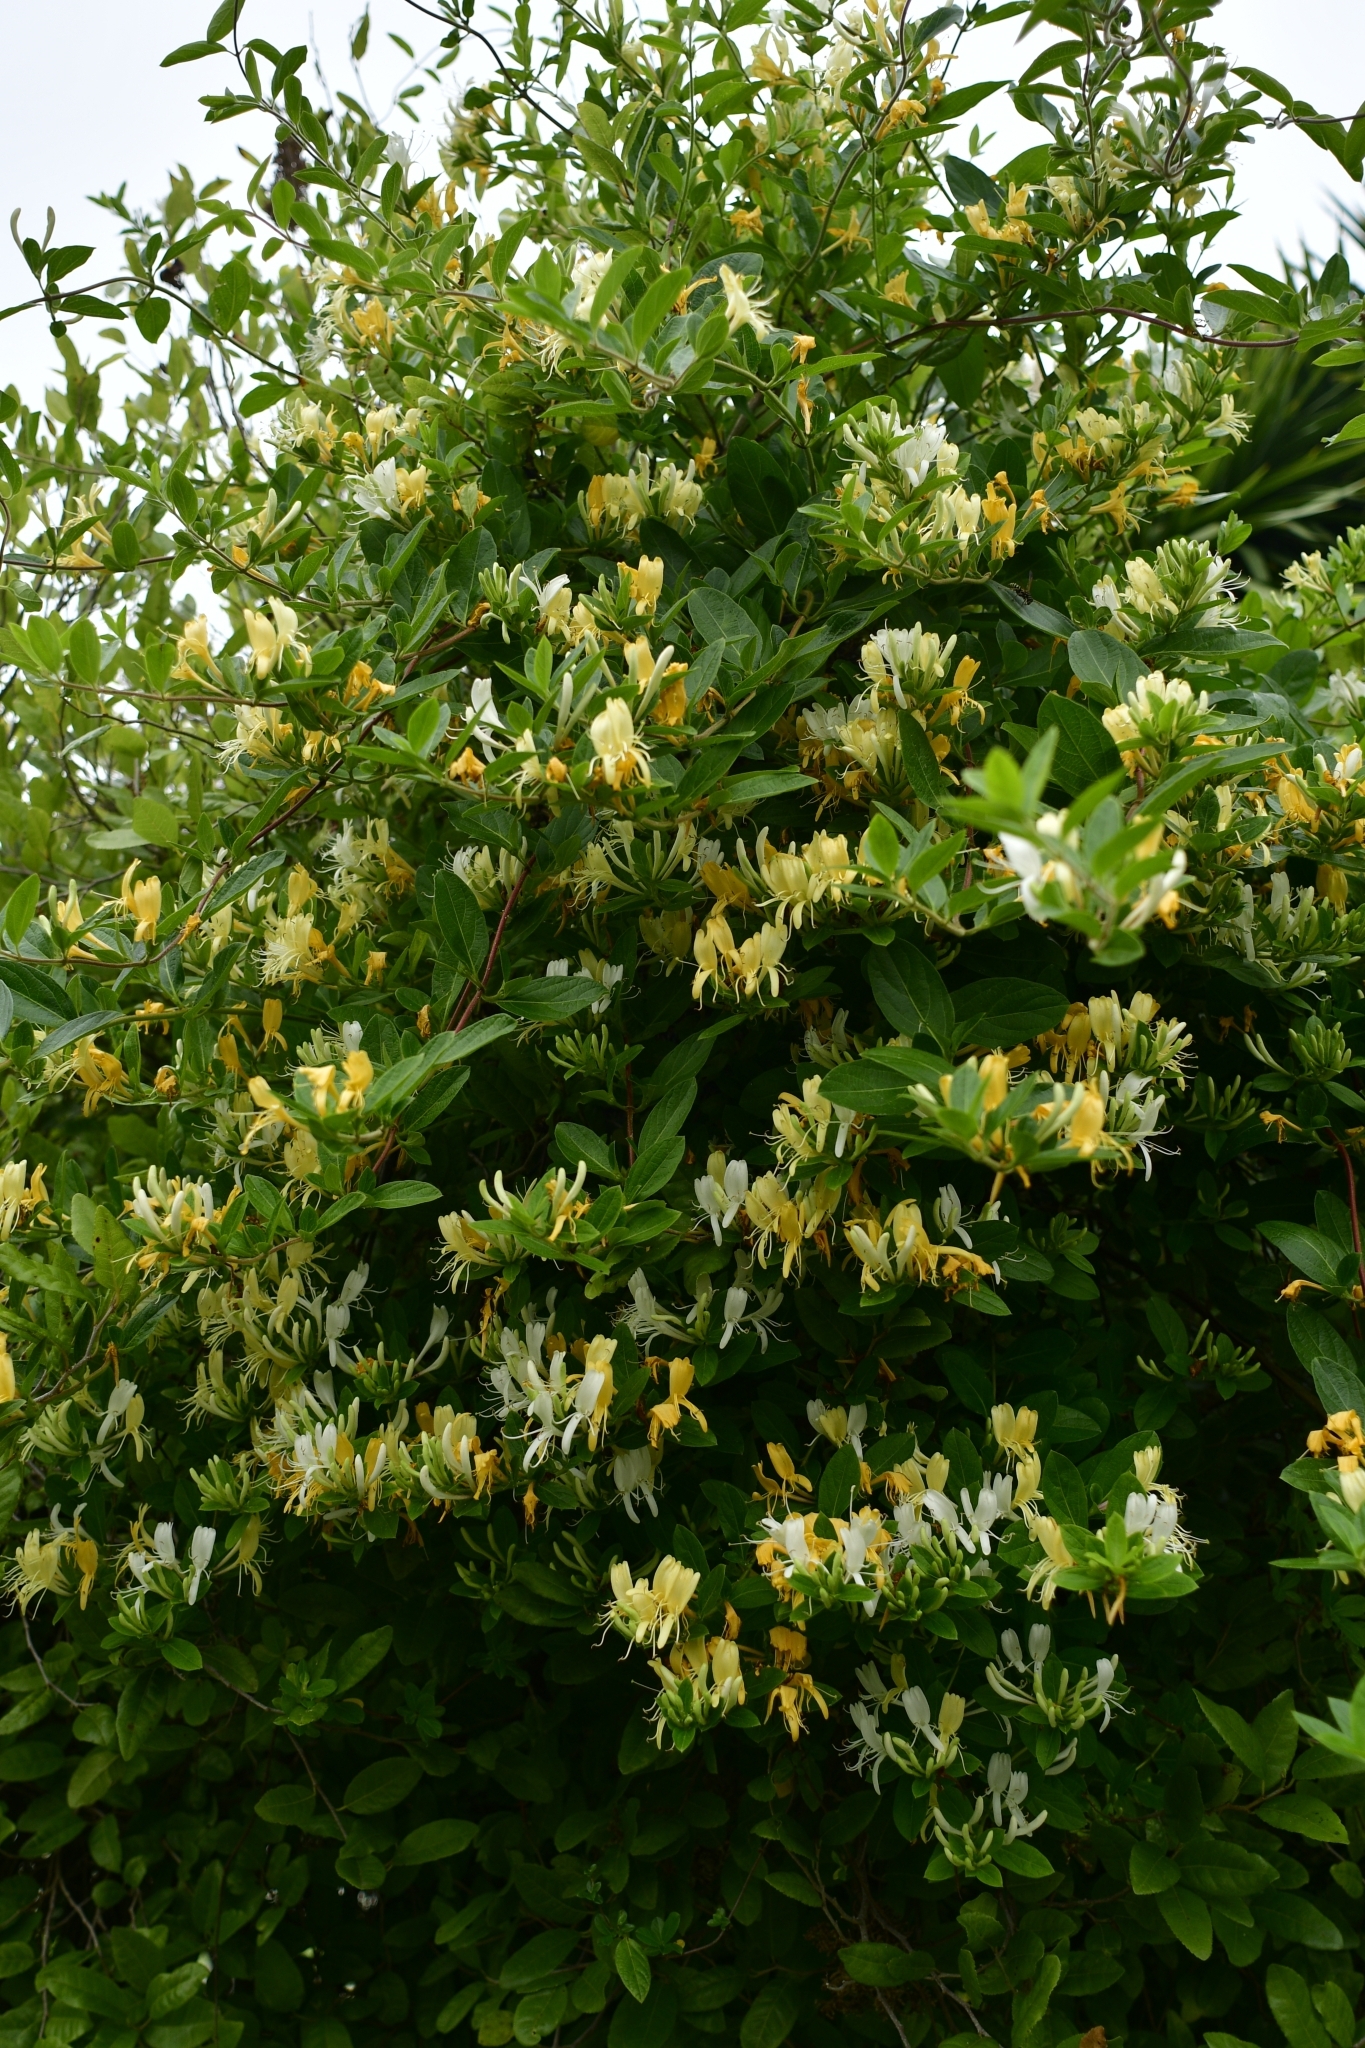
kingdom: Plantae
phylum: Tracheophyta
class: Magnoliopsida
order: Dipsacales
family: Caprifoliaceae
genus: Lonicera
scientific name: Lonicera japonica
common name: Japanese honeysuckle
